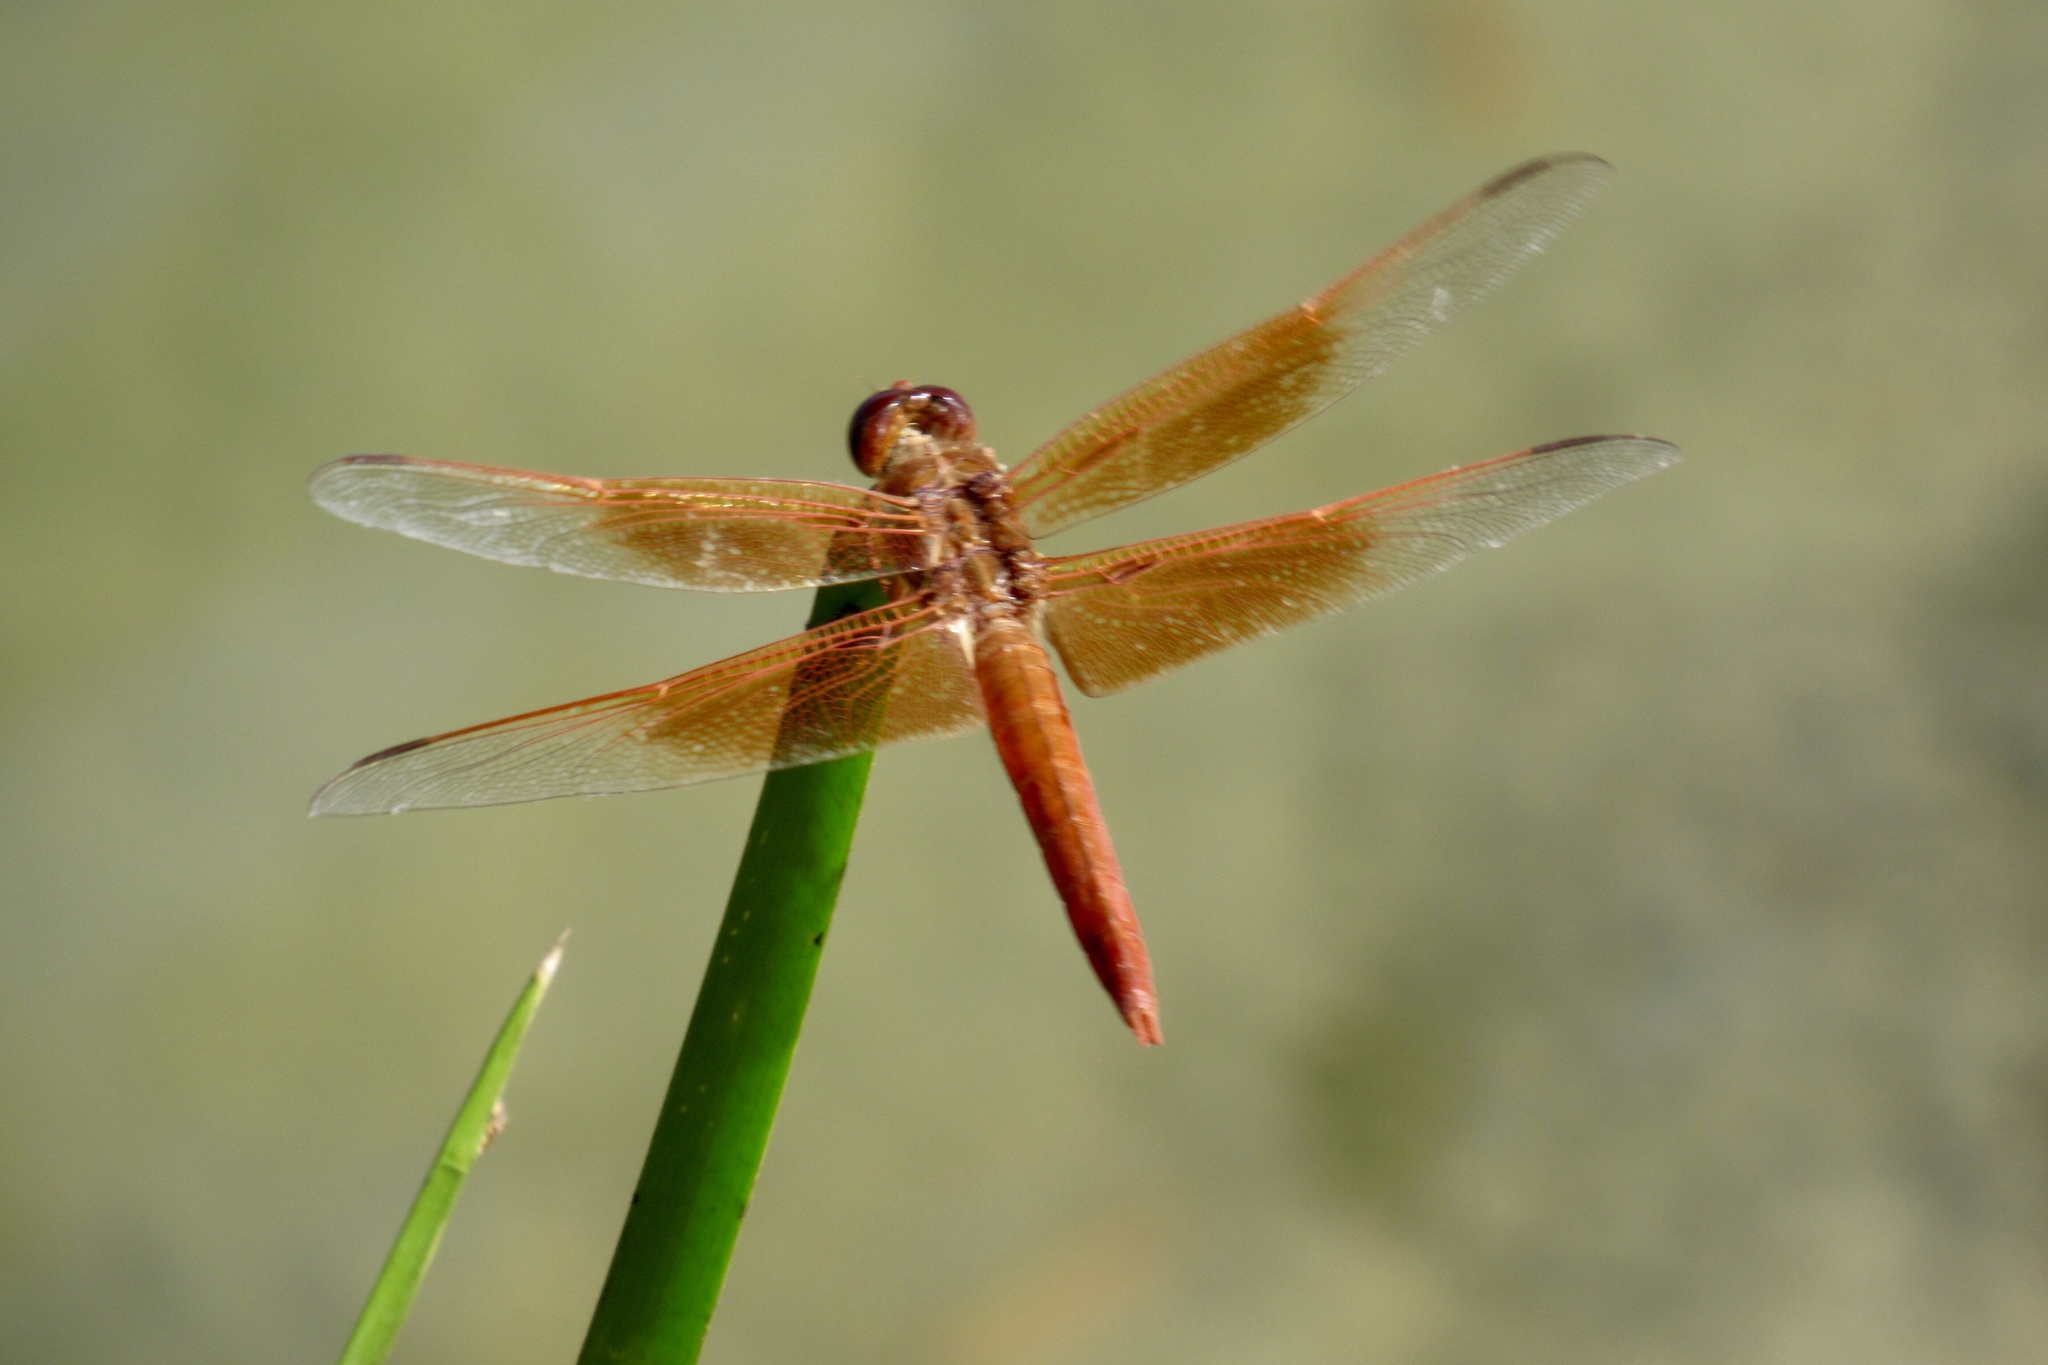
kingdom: Animalia
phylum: Arthropoda
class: Insecta
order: Odonata
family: Libellulidae
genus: Libellula
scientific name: Libellula saturata
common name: Flame skimmer
